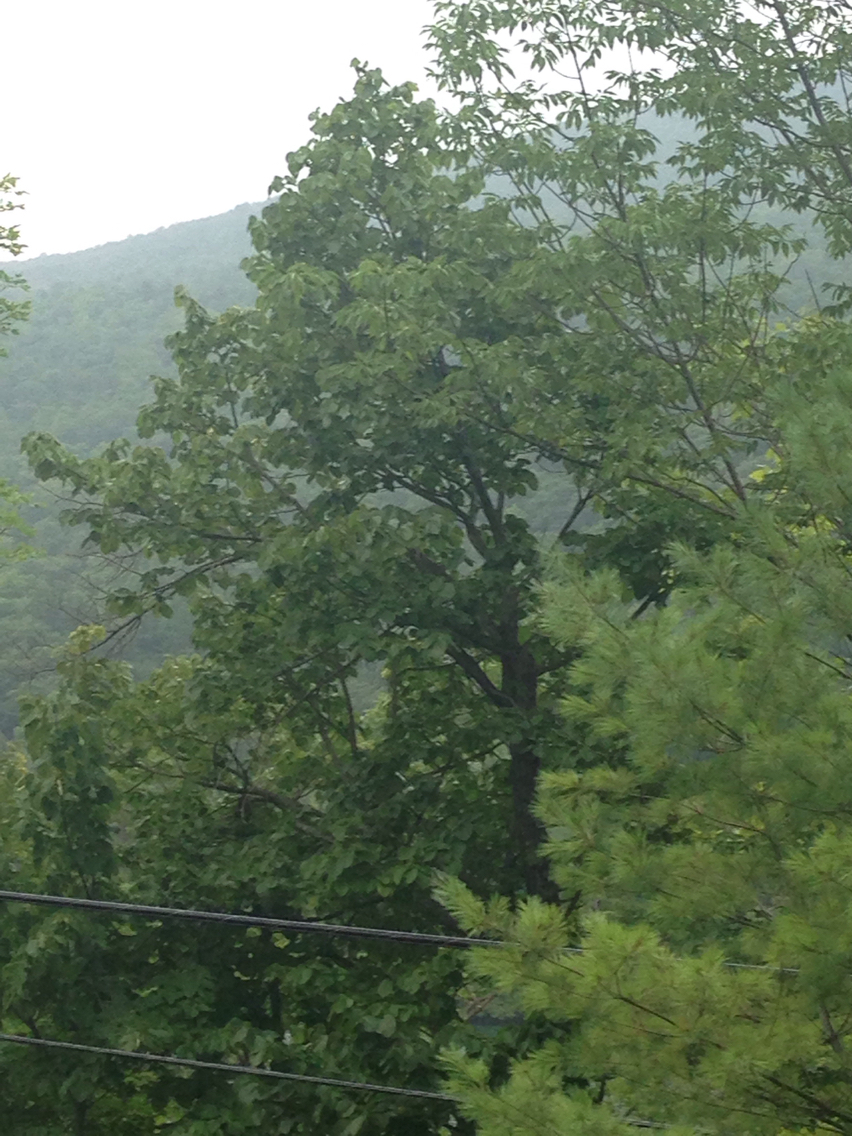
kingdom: Plantae
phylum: Tracheophyta
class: Magnoliopsida
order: Malvales
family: Malvaceae
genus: Tilia
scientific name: Tilia americana
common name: Basswood
